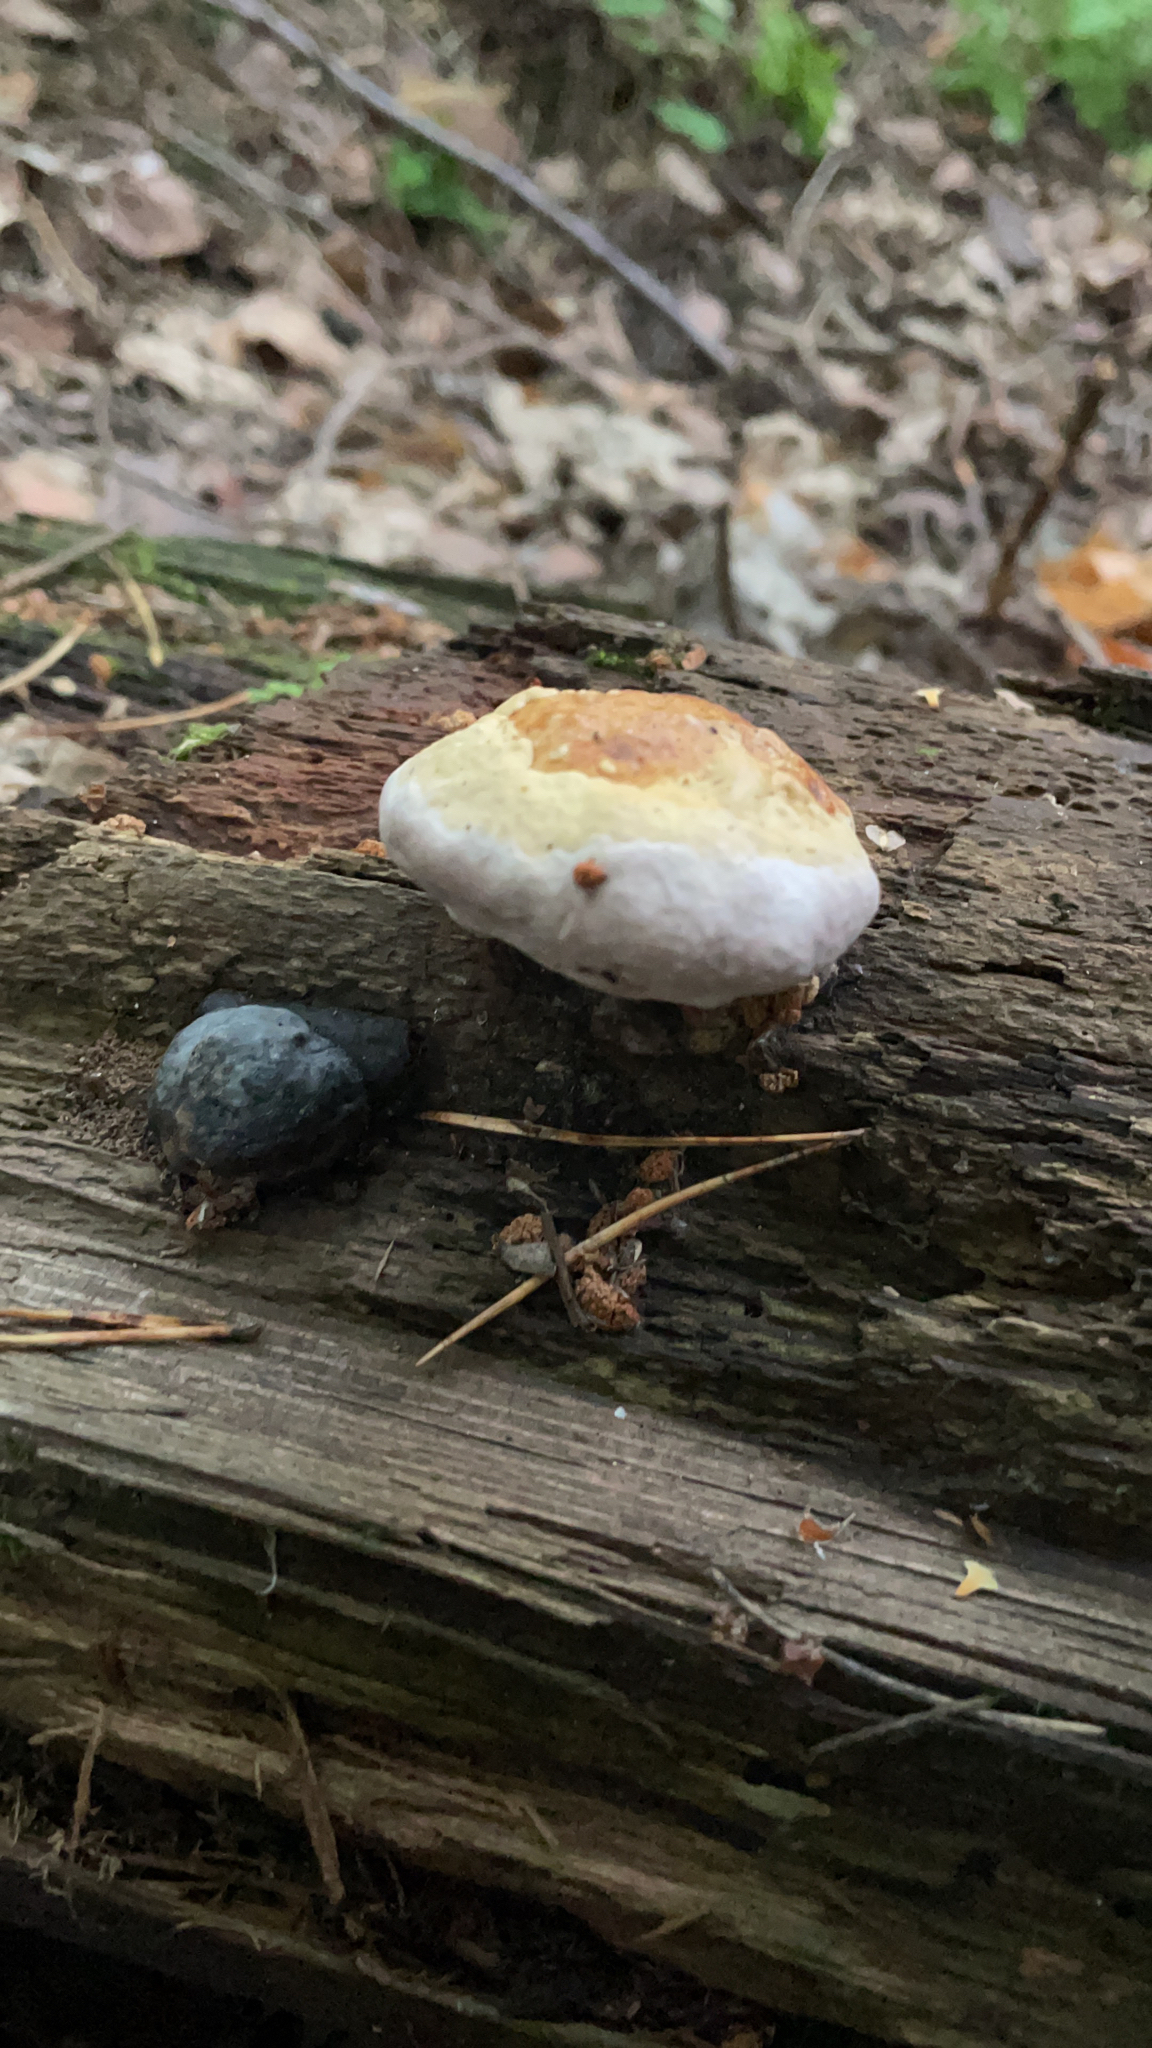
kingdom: Fungi
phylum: Basidiomycota
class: Agaricomycetes
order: Polyporales
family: Fomitopsidaceae
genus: Fomitopsis
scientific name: Fomitopsis pinicola
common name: Red-belted bracket
